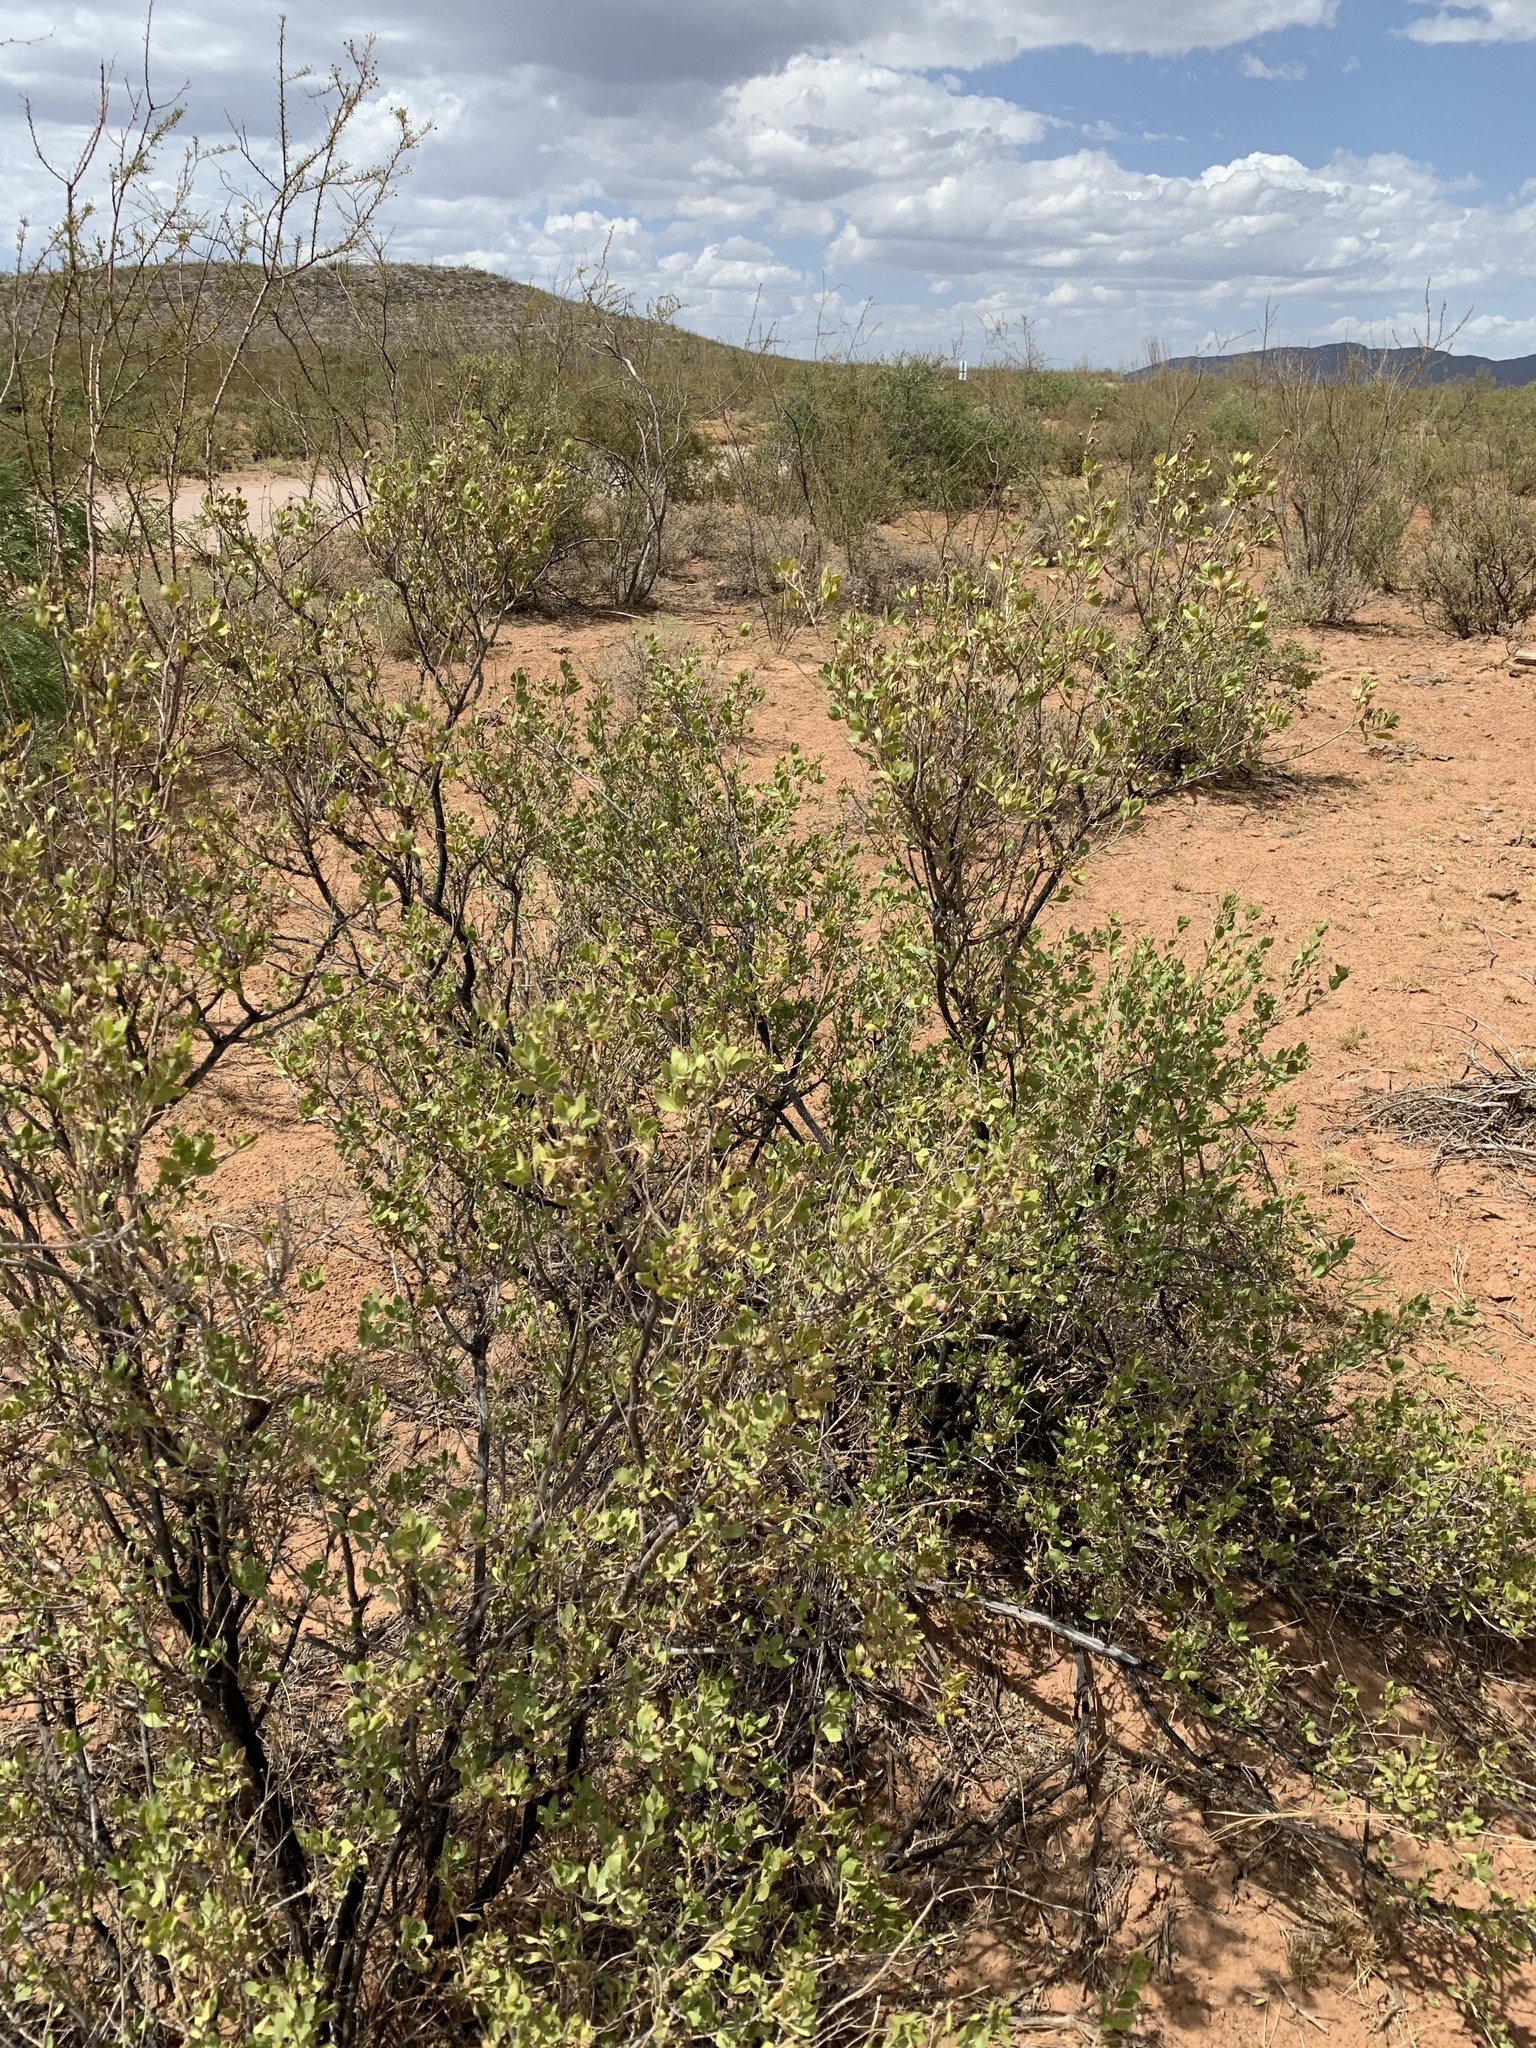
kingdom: Plantae
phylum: Tracheophyta
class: Magnoliopsida
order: Asterales
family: Asteraceae
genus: Flourensia
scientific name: Flourensia cernua
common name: Varnishbush
